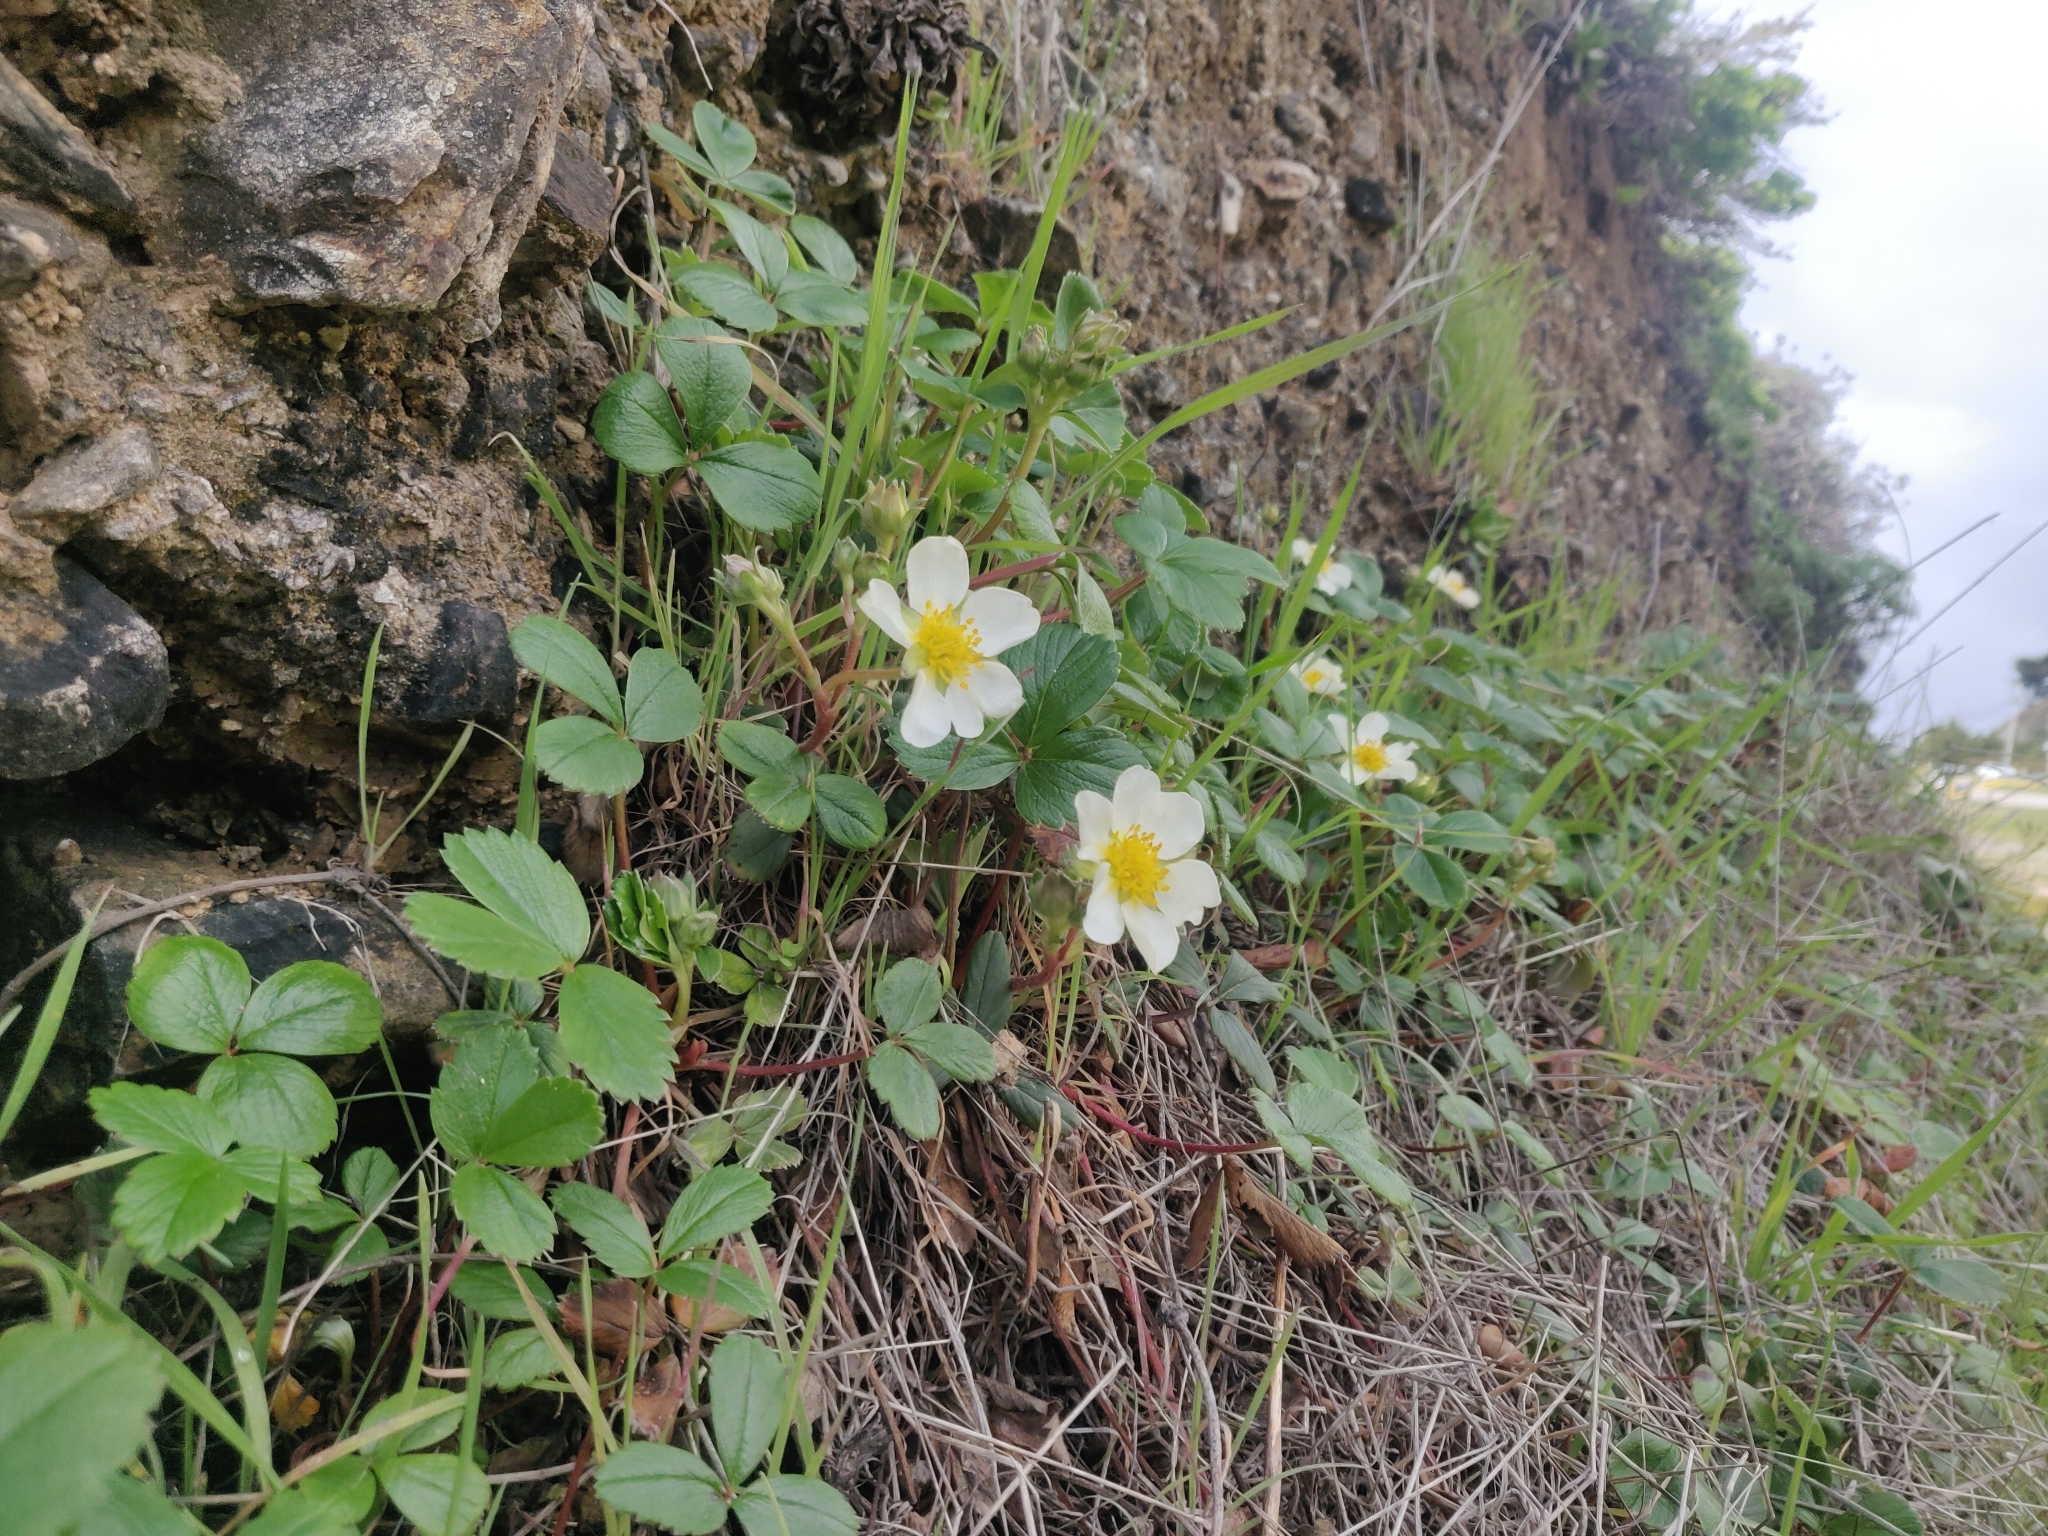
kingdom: Plantae
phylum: Tracheophyta
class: Magnoliopsida
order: Rosales
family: Rosaceae
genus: Fragaria
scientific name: Fragaria chiloensis
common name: Beach strawberry
